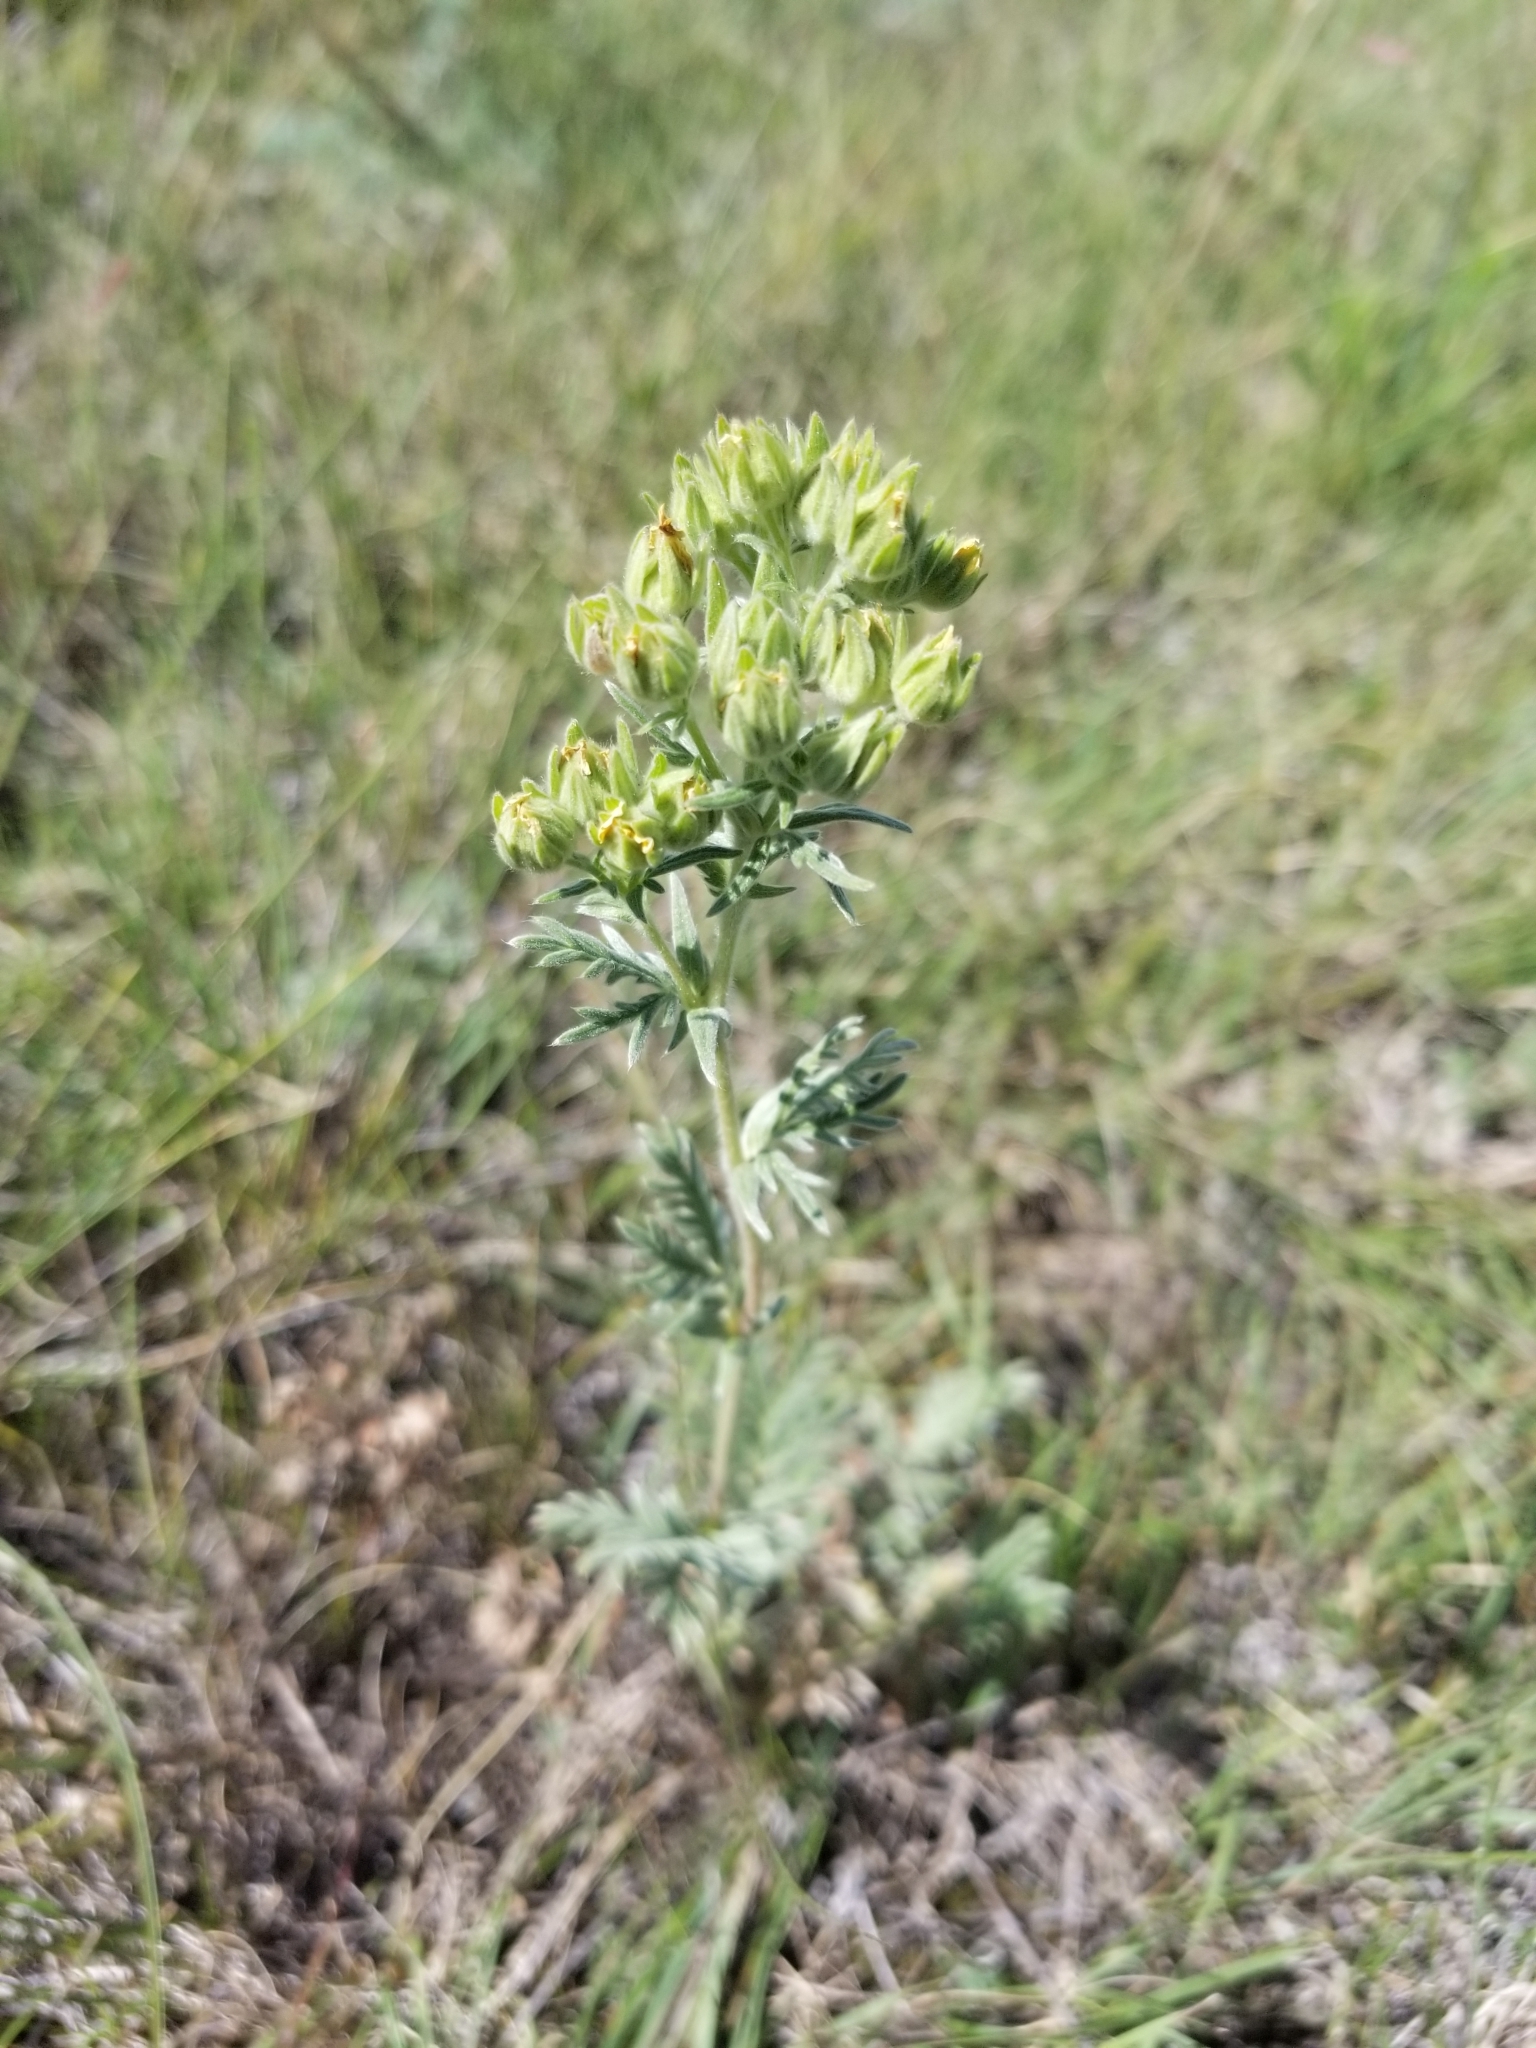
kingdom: Plantae
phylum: Tracheophyta
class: Magnoliopsida
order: Rosales
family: Rosaceae
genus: Drymocallis
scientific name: Drymocallis arguta
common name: Tall cinquefoil
